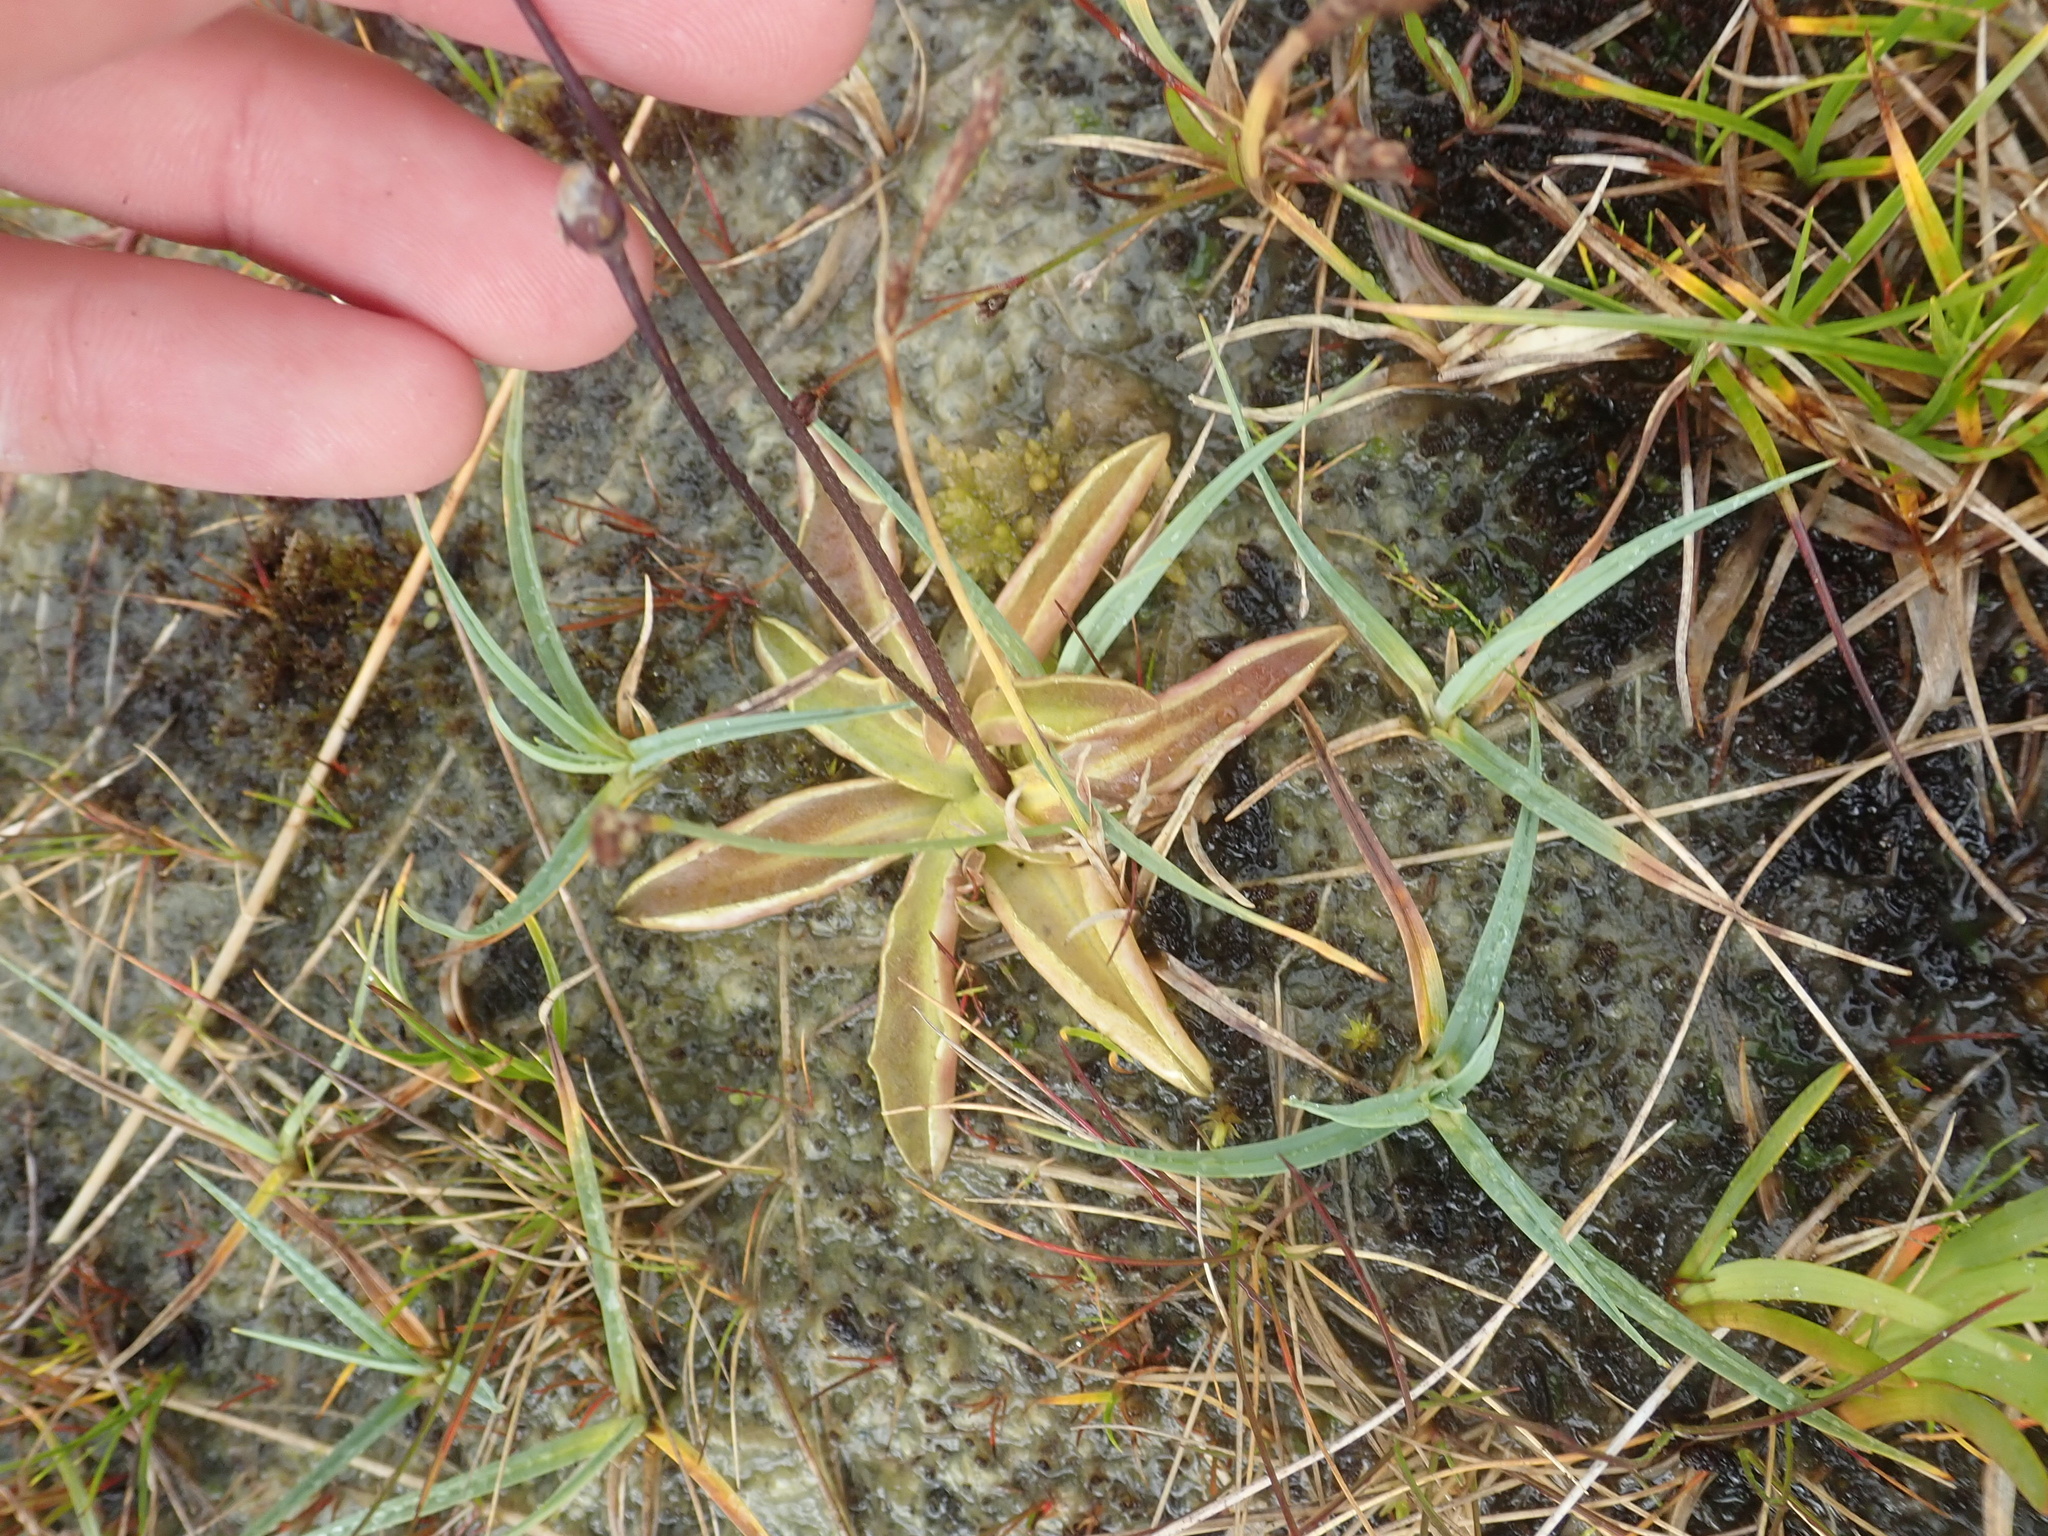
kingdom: Plantae
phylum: Tracheophyta
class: Magnoliopsida
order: Lamiales
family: Lentibulariaceae
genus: Pinguicula
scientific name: Pinguicula vulgaris
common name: Common butterwort
